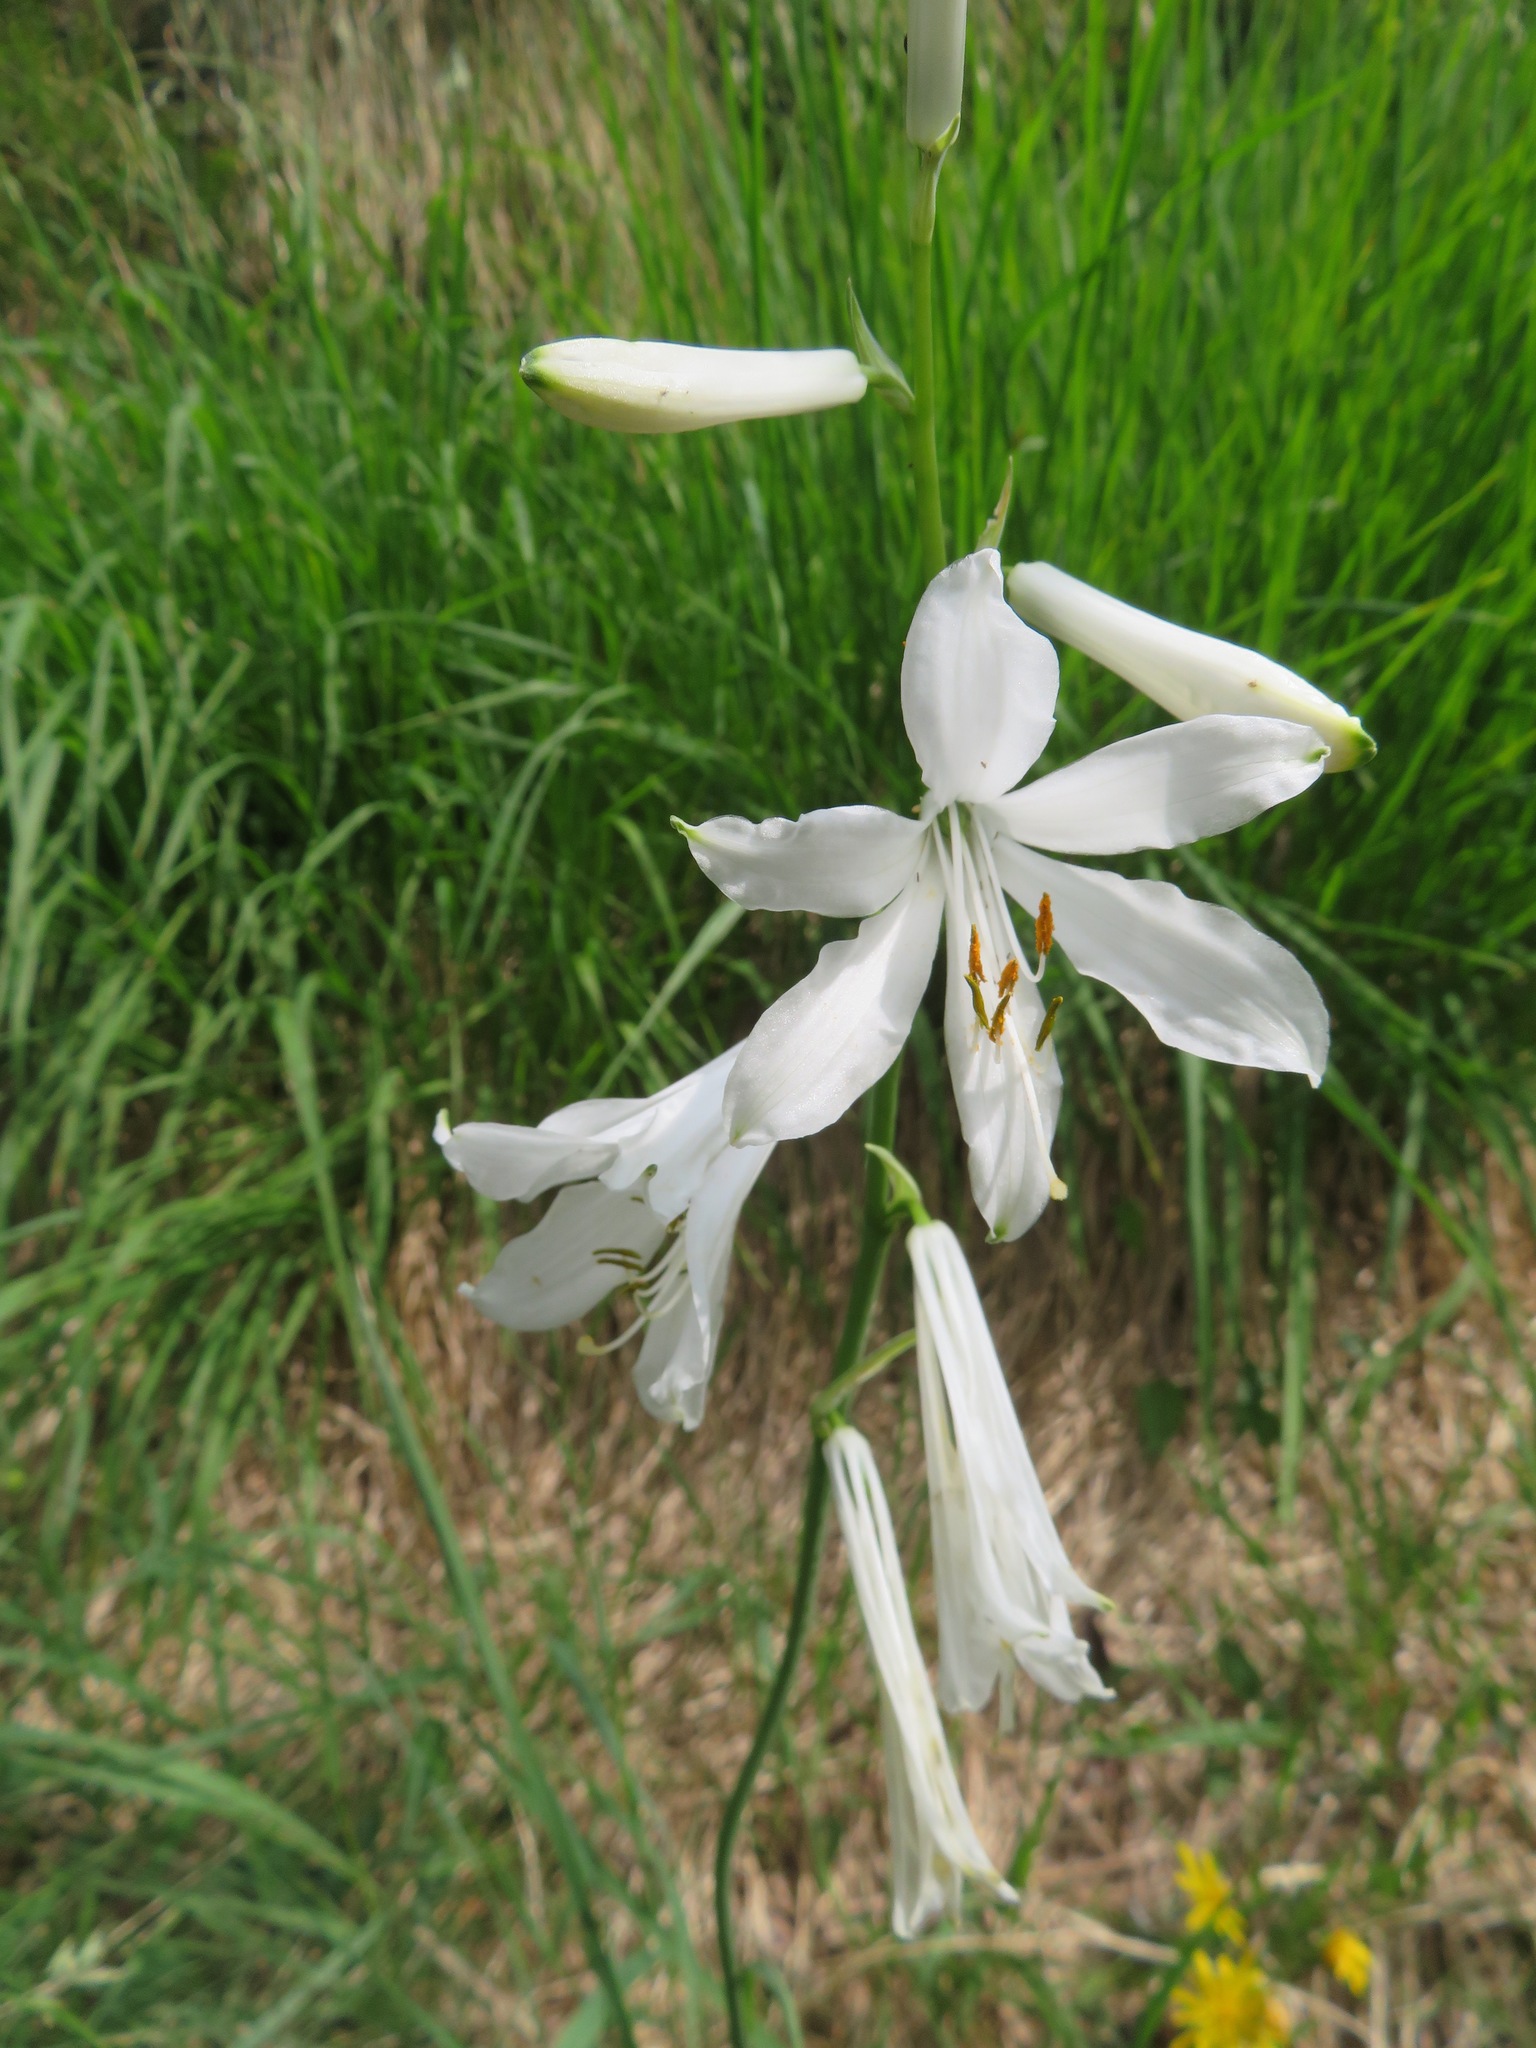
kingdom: Plantae
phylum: Tracheophyta
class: Liliopsida
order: Asparagales
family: Asparagaceae
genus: Paradisea
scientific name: Paradisea liliastrum
